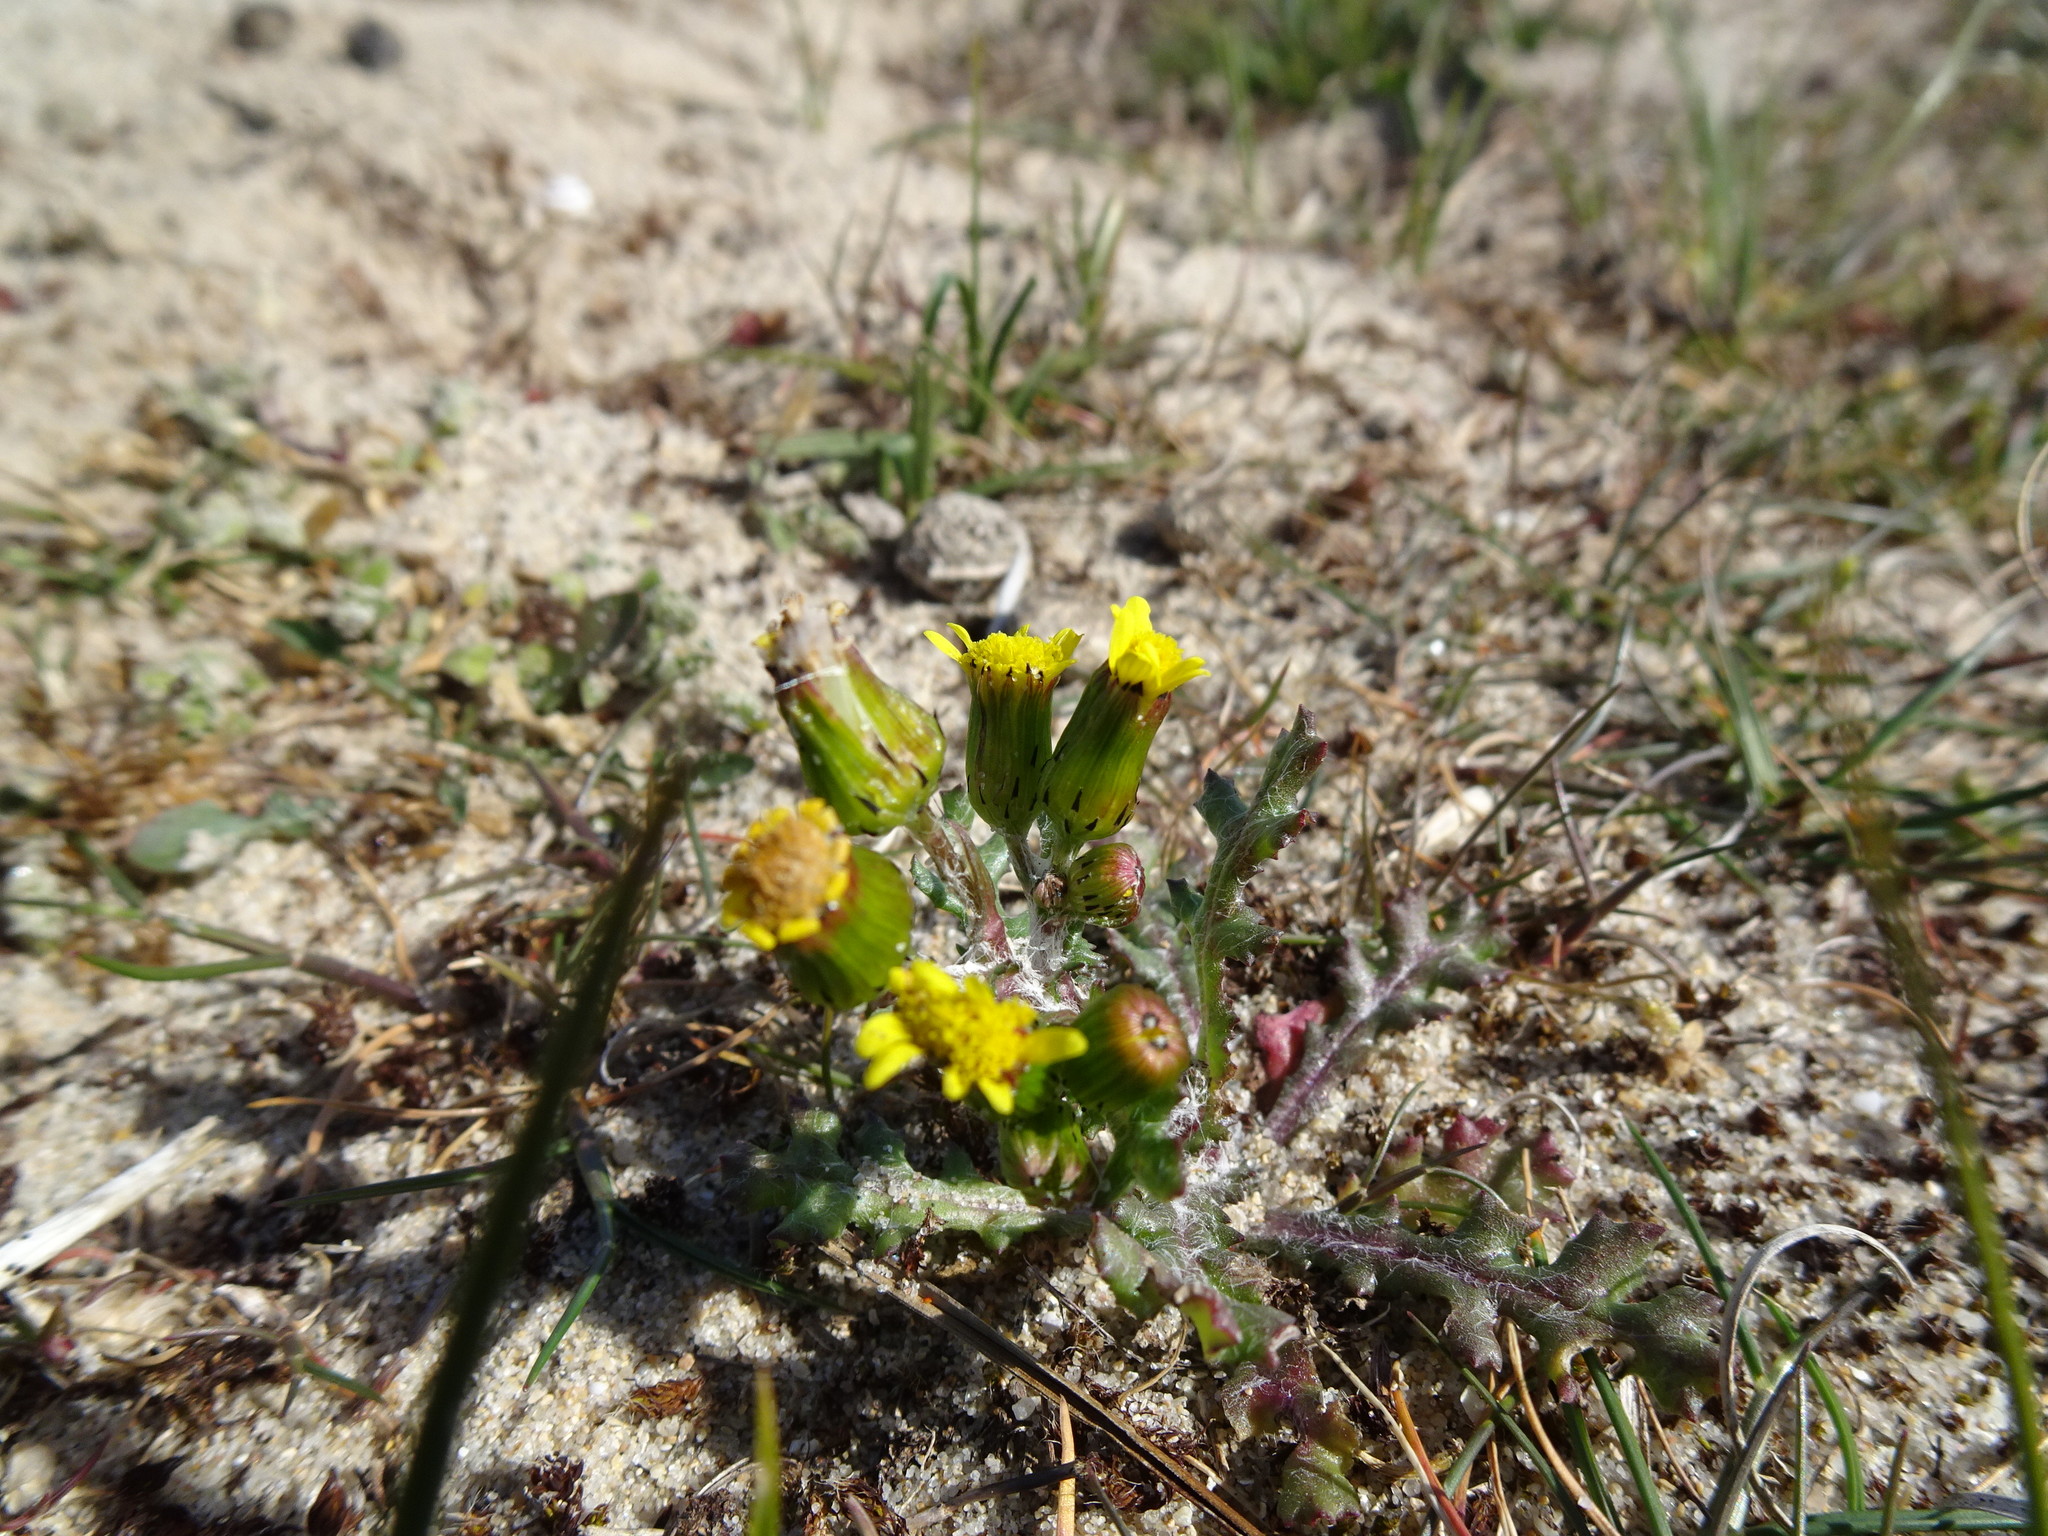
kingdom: Plantae
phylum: Tracheophyta
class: Magnoliopsida
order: Asterales
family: Asteraceae
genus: Senecio
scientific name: Senecio vulgaris
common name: Old-man-in-the-spring
